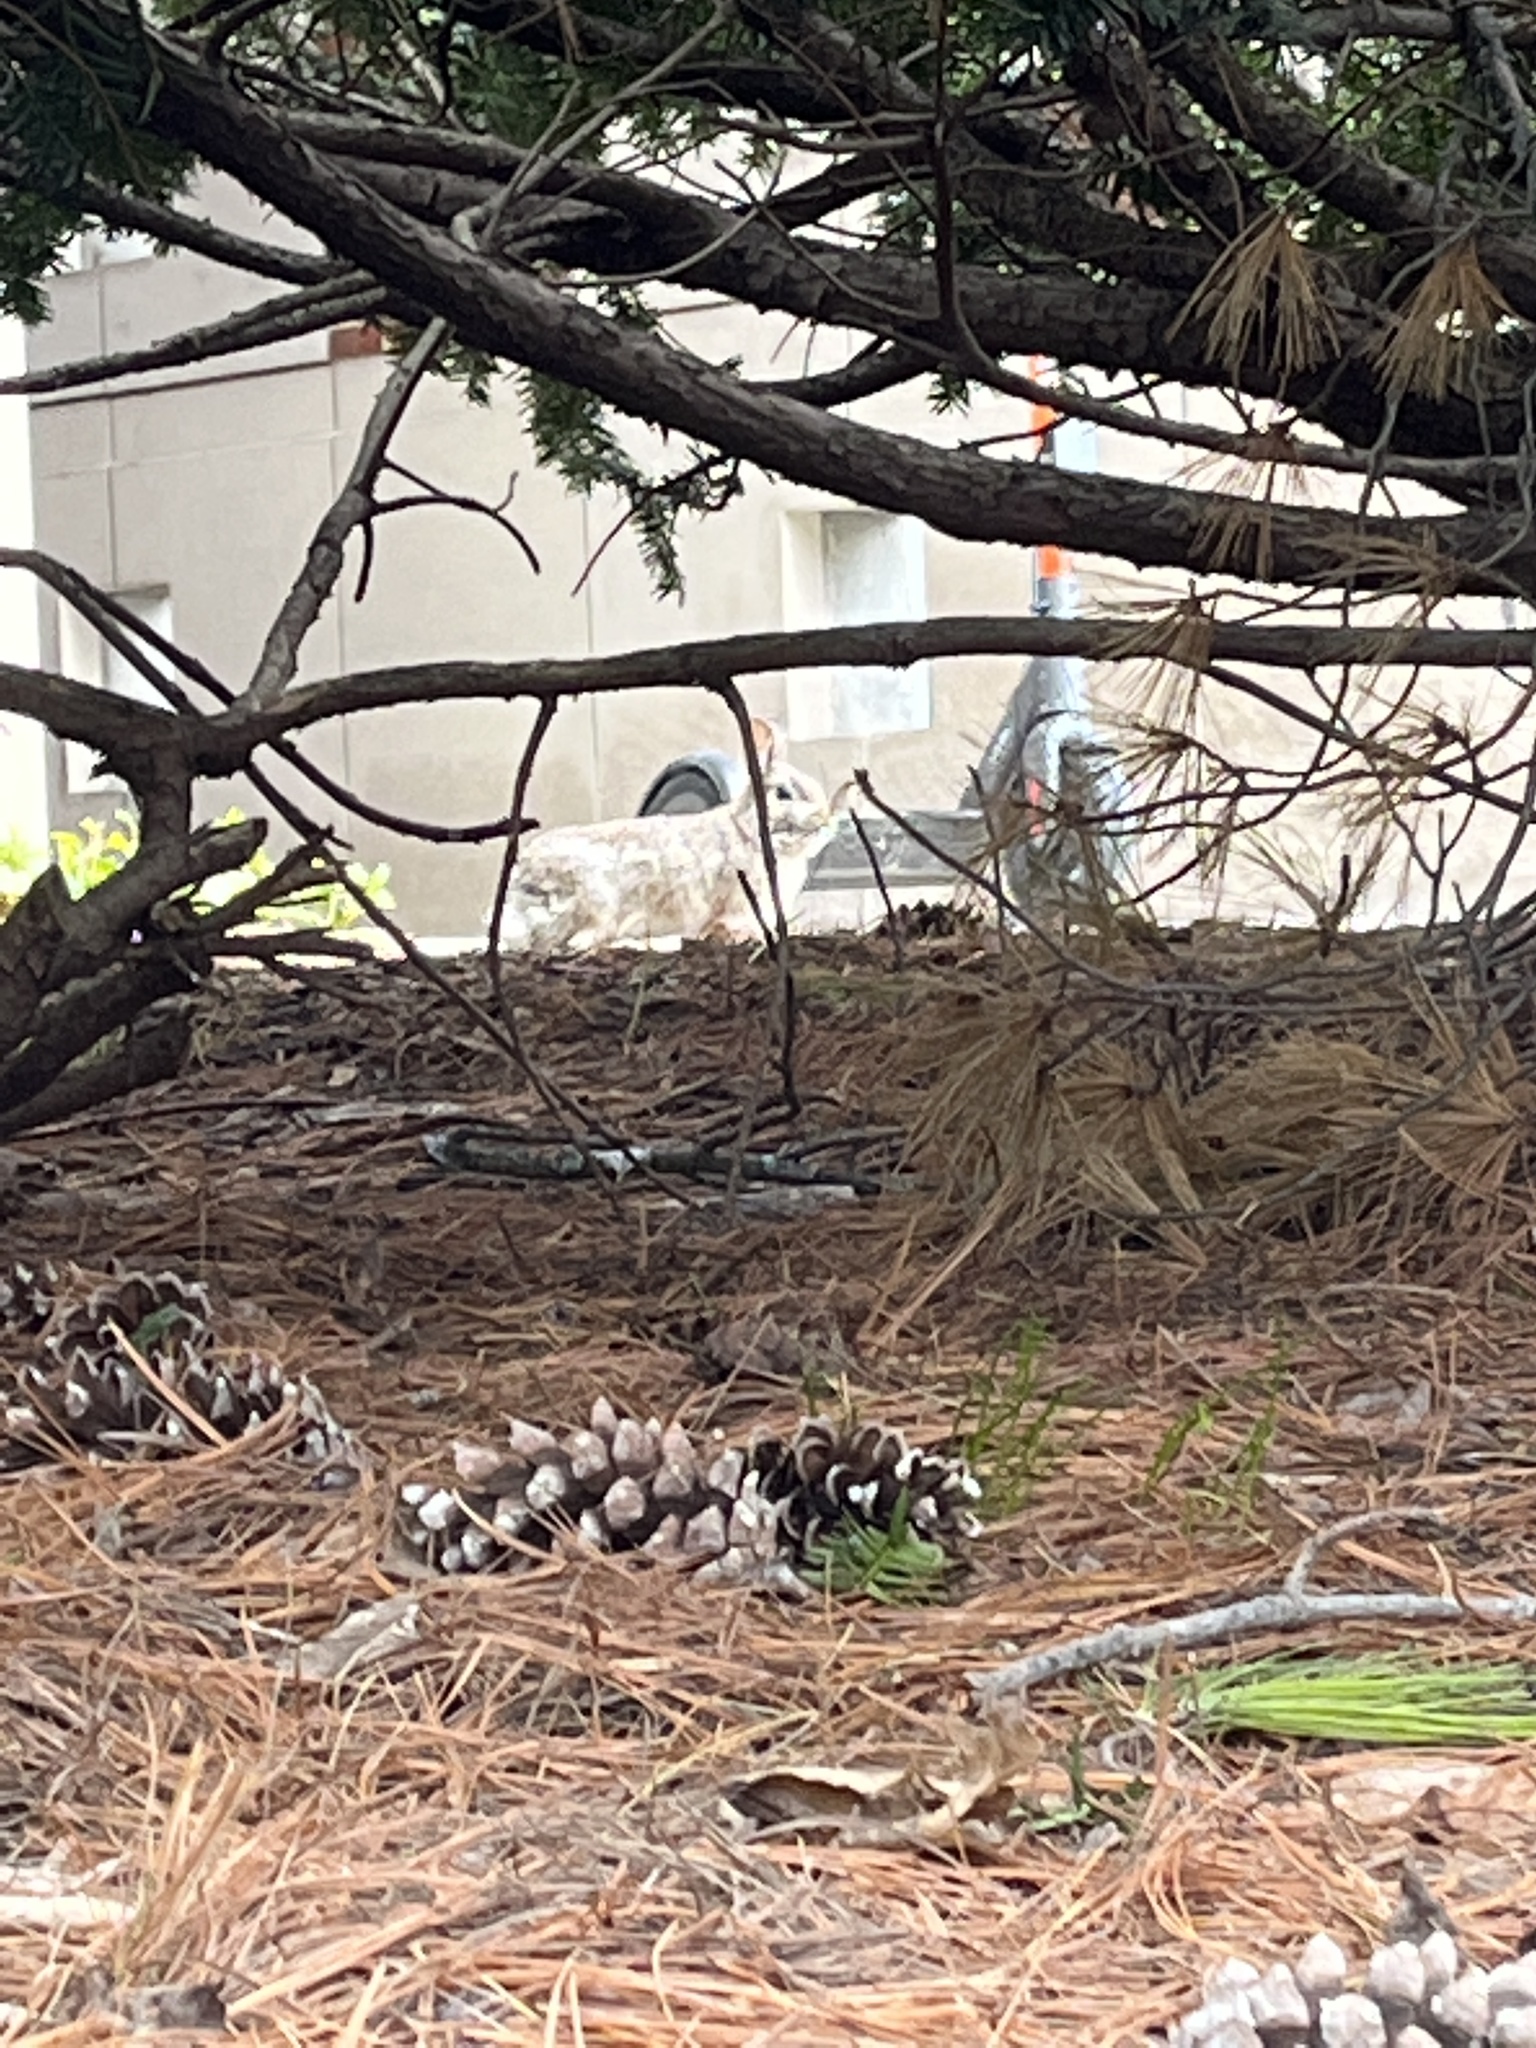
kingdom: Animalia
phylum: Chordata
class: Mammalia
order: Lagomorpha
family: Leporidae
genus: Sylvilagus
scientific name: Sylvilagus floridanus
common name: Eastern cottontail
